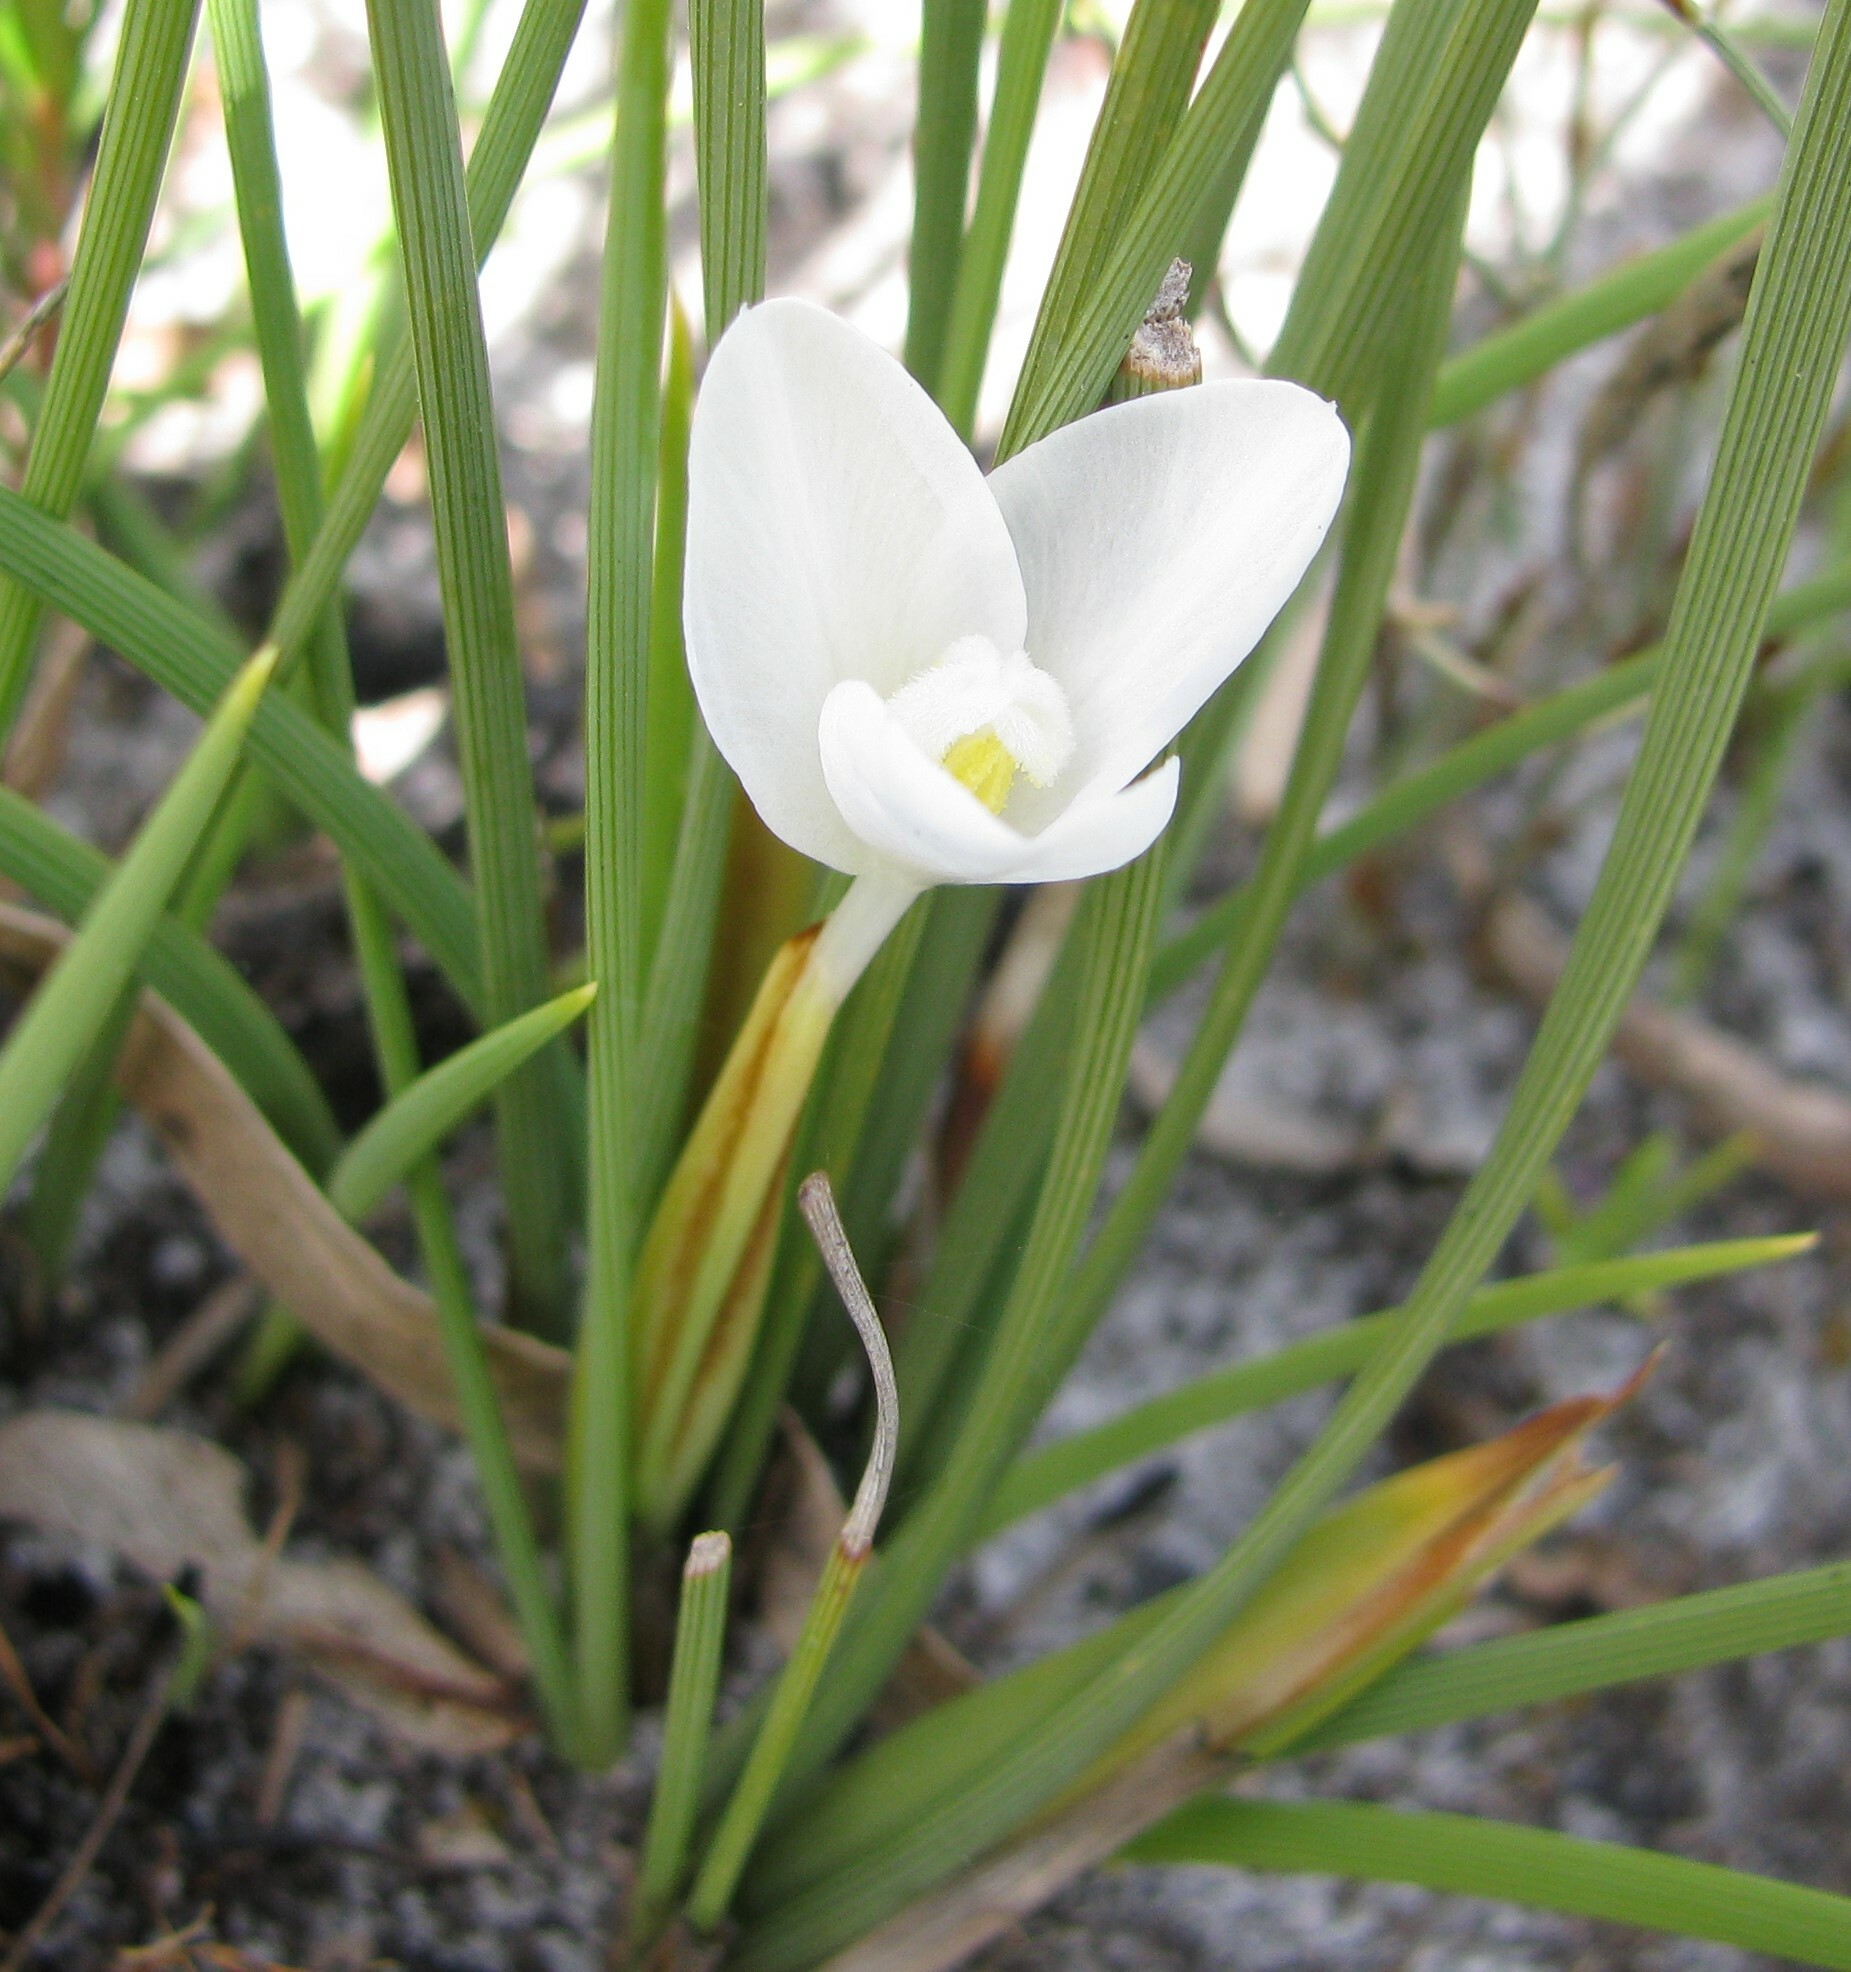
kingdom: Plantae
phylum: Tracheophyta
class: Liliopsida
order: Asparagales
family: Iridaceae
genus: Patersonia
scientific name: Patersonia fragilis
